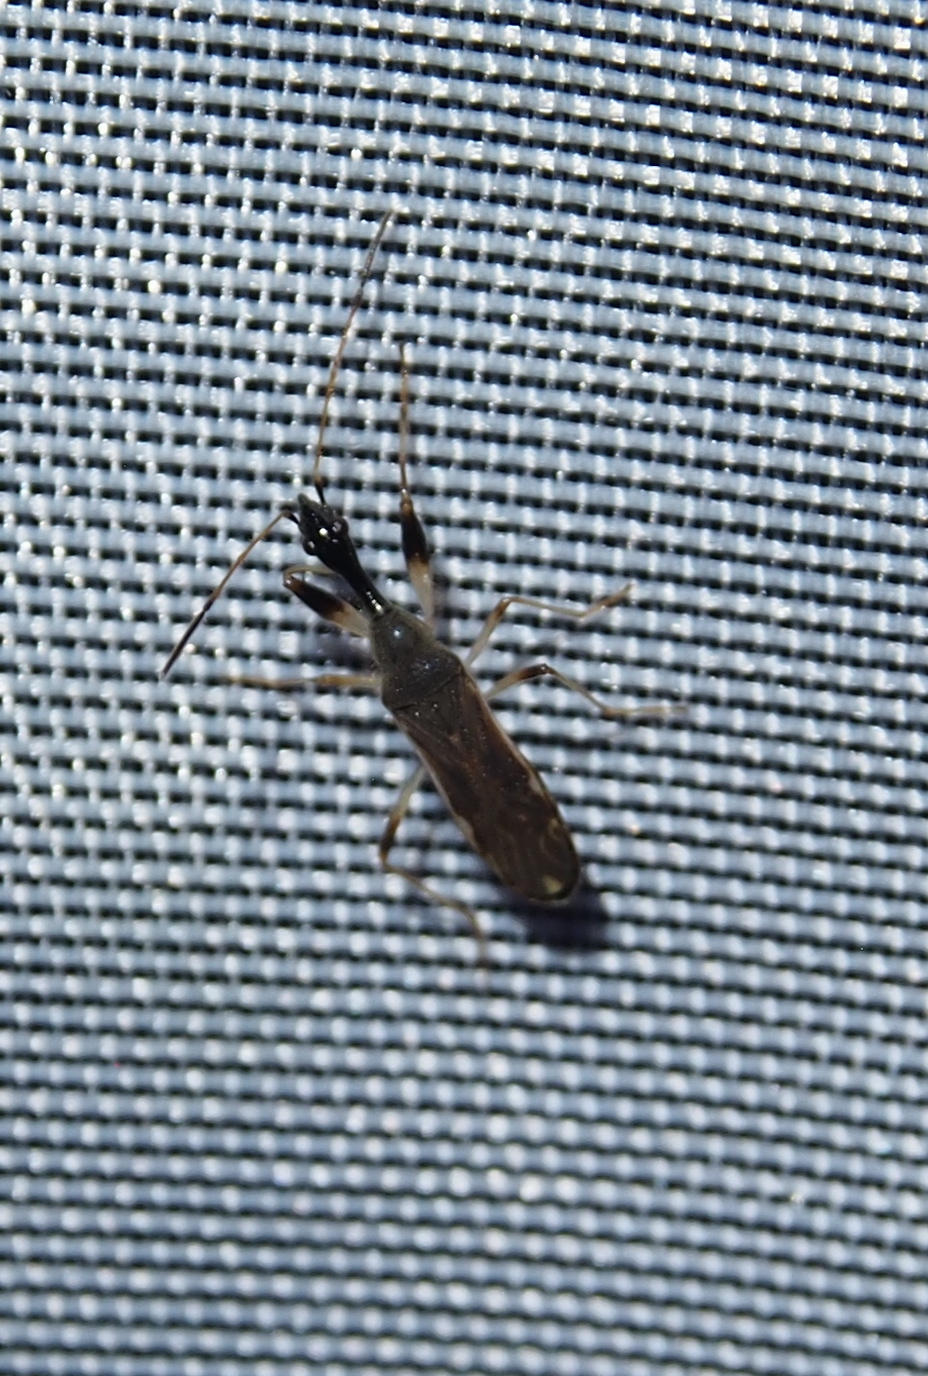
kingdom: Animalia
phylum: Arthropoda
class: Insecta
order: Hemiptera
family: Rhyparochromidae
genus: Ozophora
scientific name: Ozophora picturata
